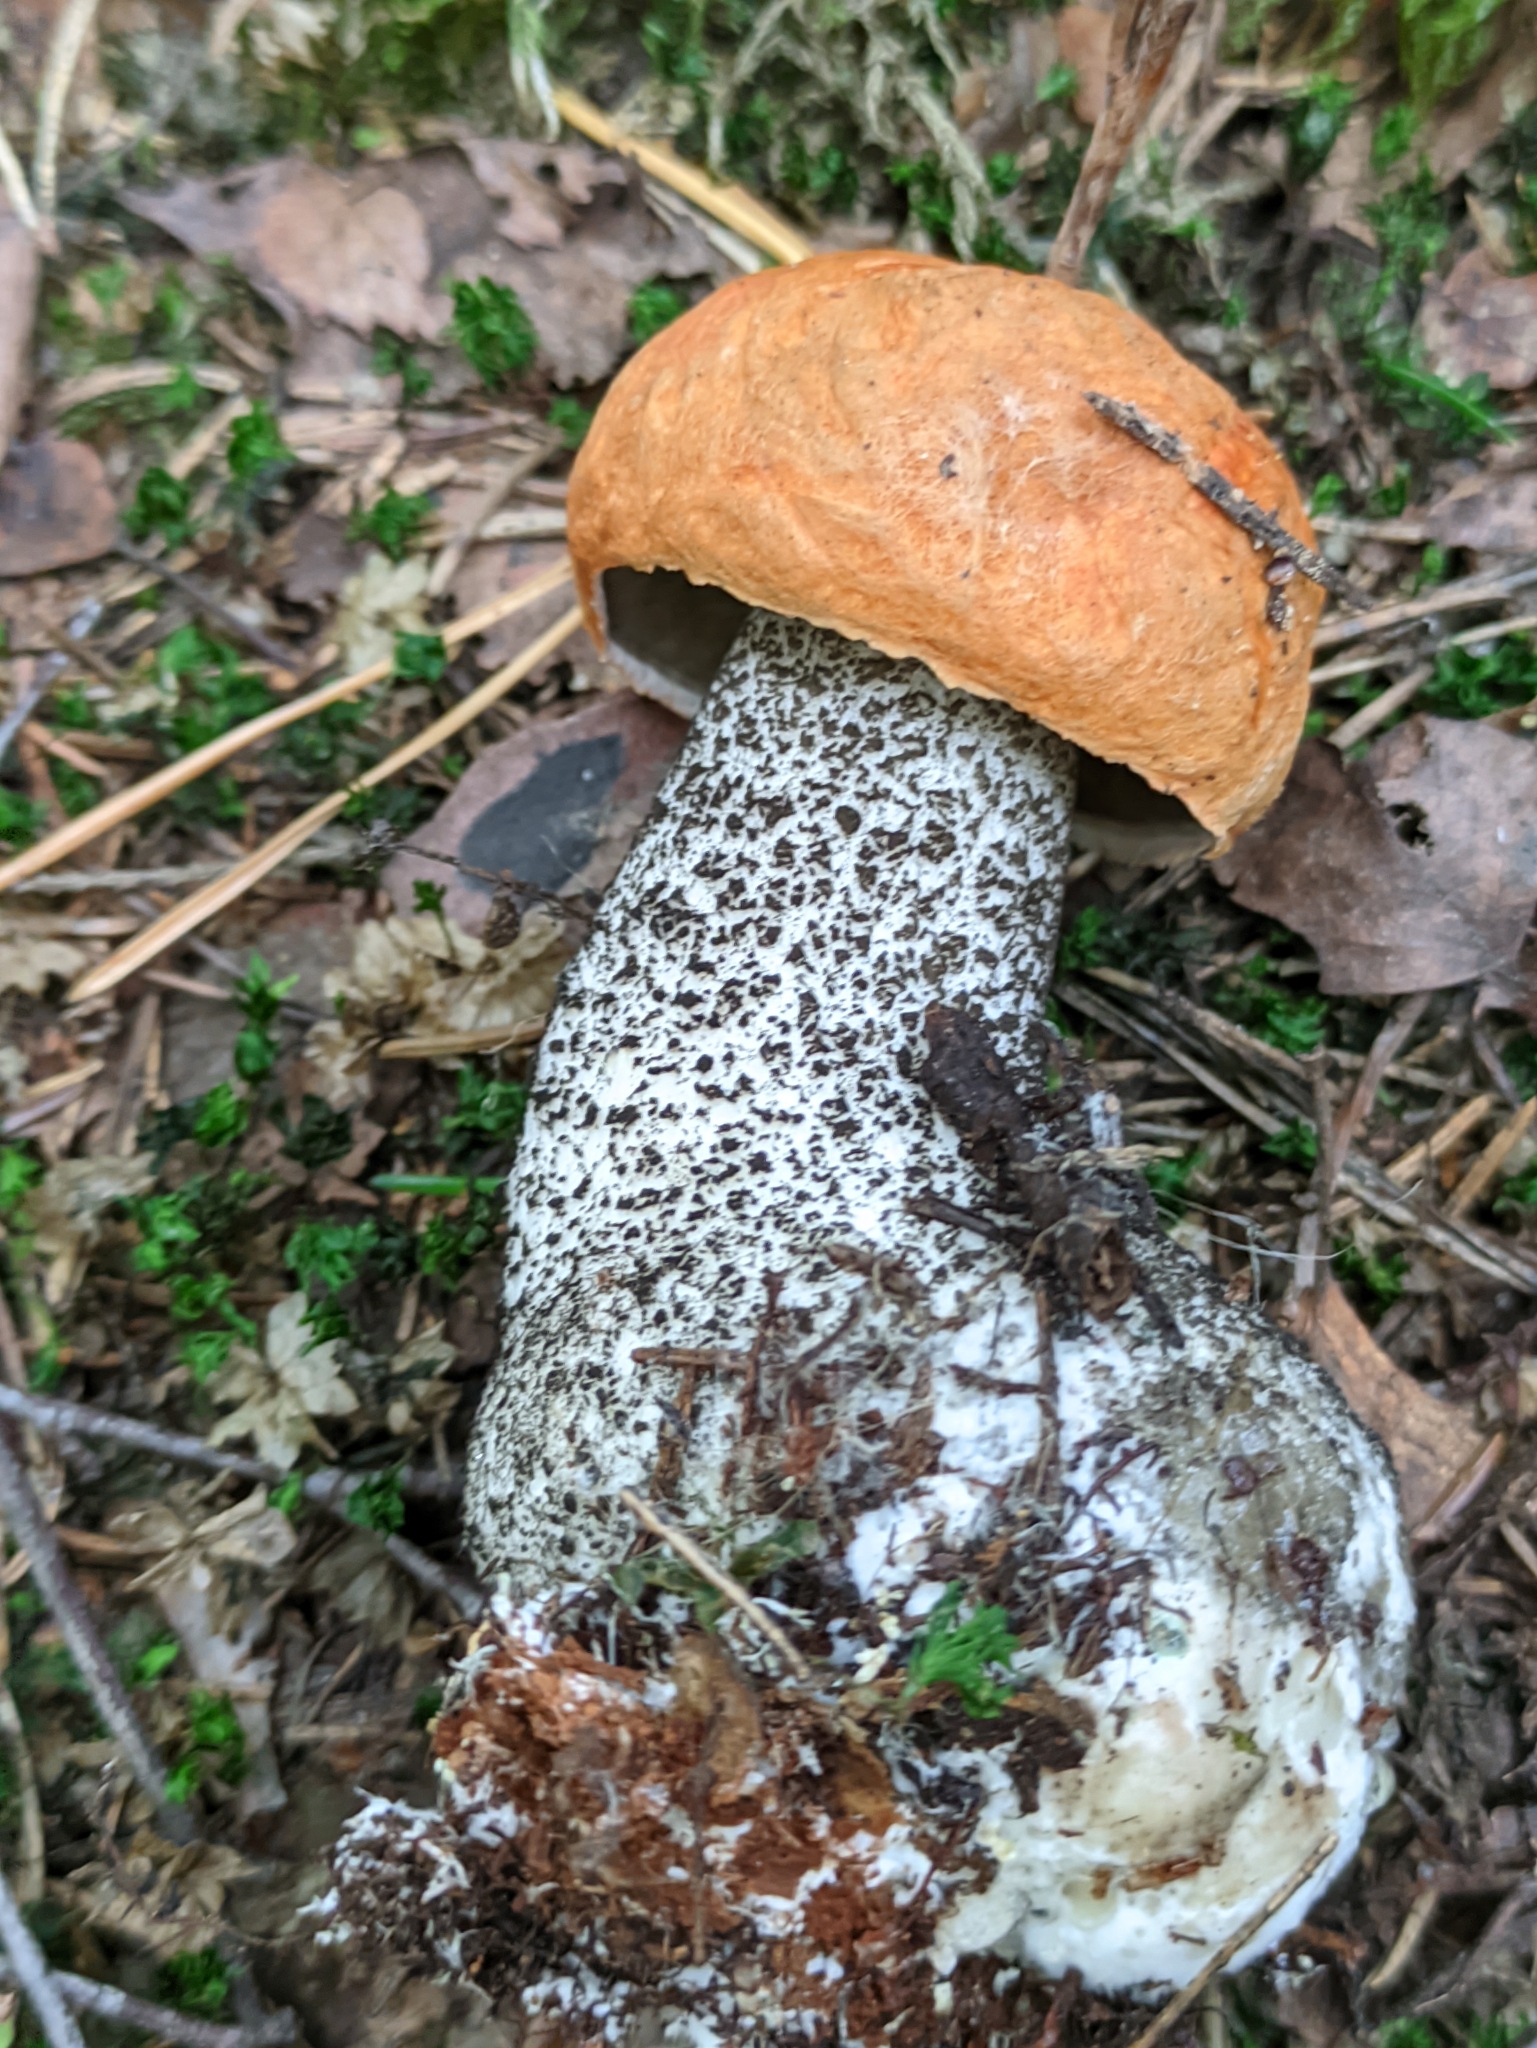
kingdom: Fungi
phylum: Basidiomycota
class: Agaricomycetes
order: Boletales
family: Boletaceae
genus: Leccinum
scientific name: Leccinum versipelle
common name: Orange birch bolete
